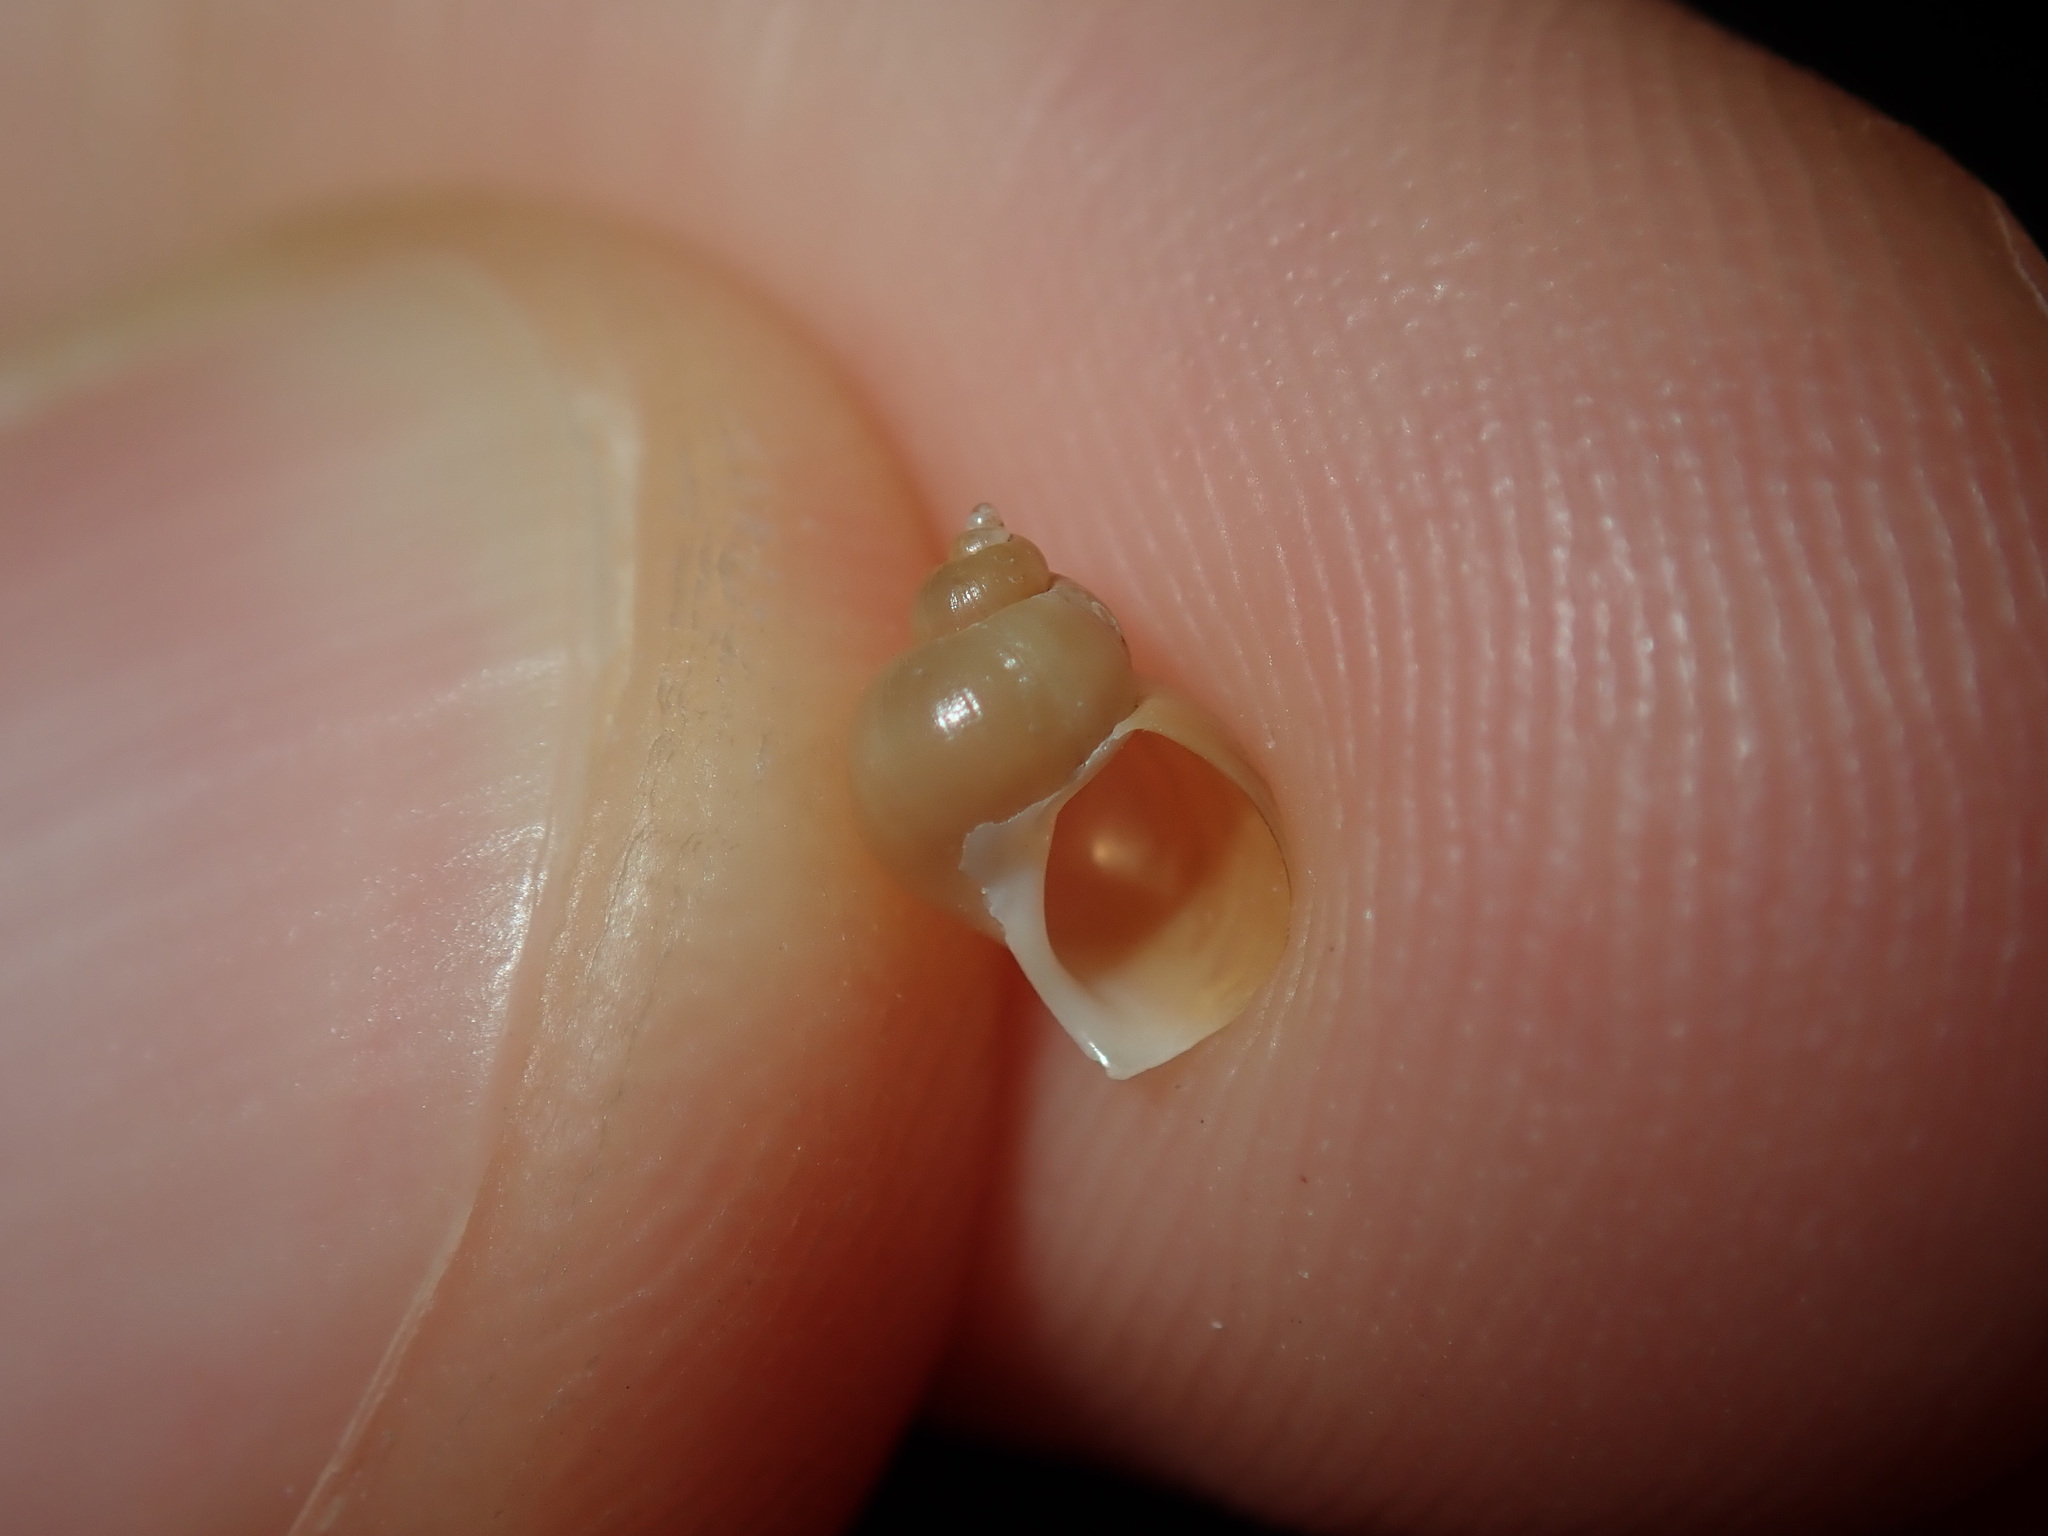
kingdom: Animalia
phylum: Mollusca
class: Gastropoda
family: Epitoniidae
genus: Recluzia
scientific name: Recluzia lutea
